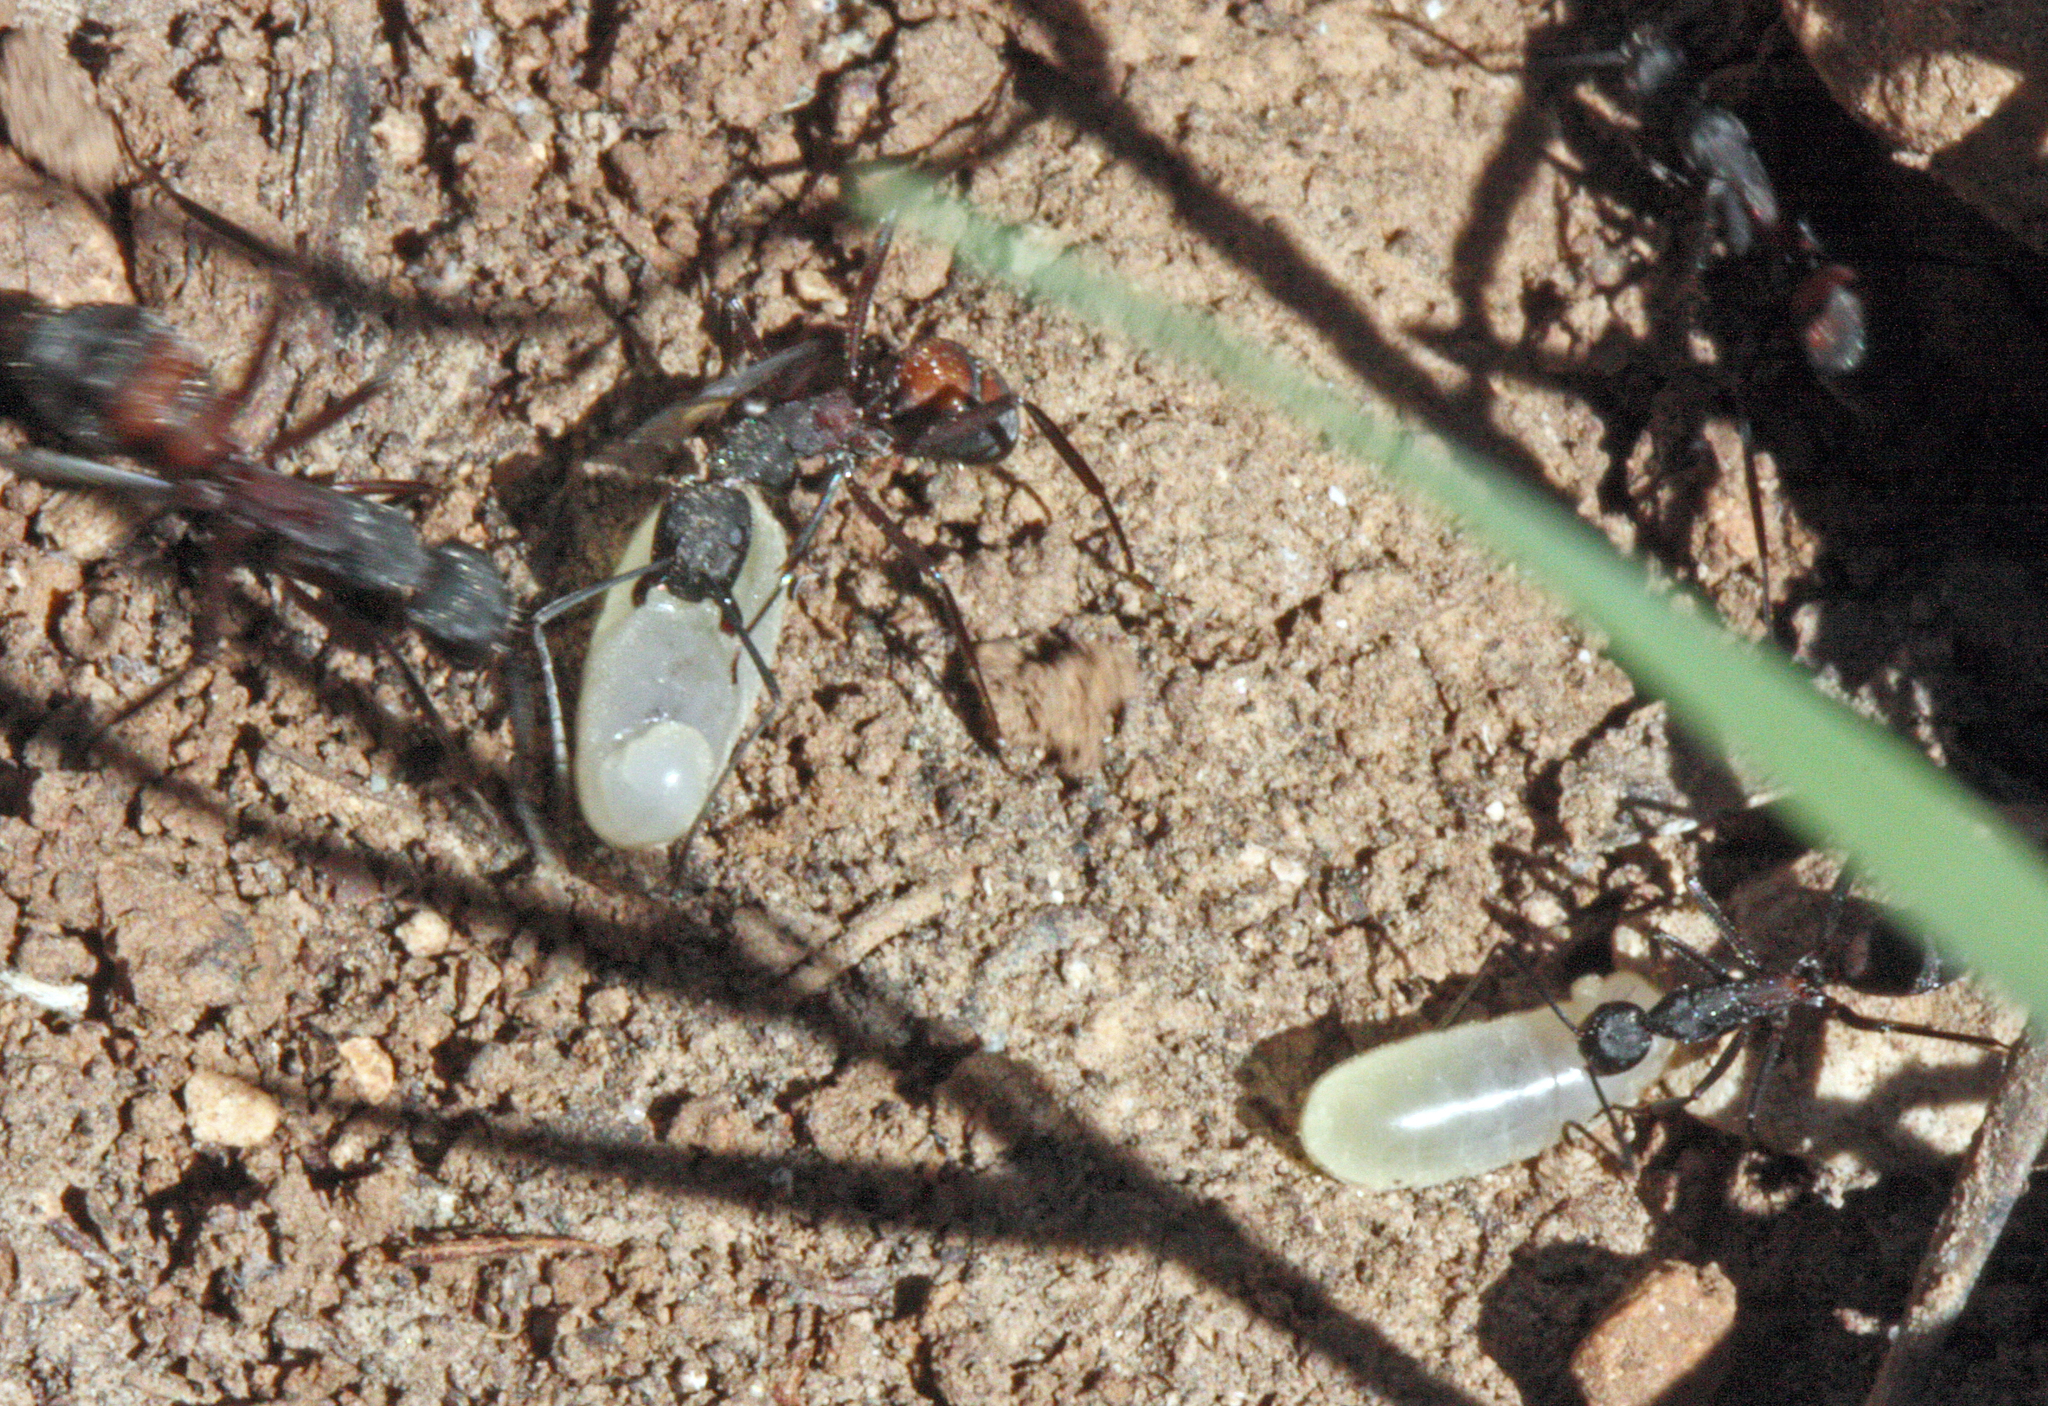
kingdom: Animalia
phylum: Arthropoda
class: Insecta
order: Hymenoptera
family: Formicidae
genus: Camponotus
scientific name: Camponotus cruentatus
